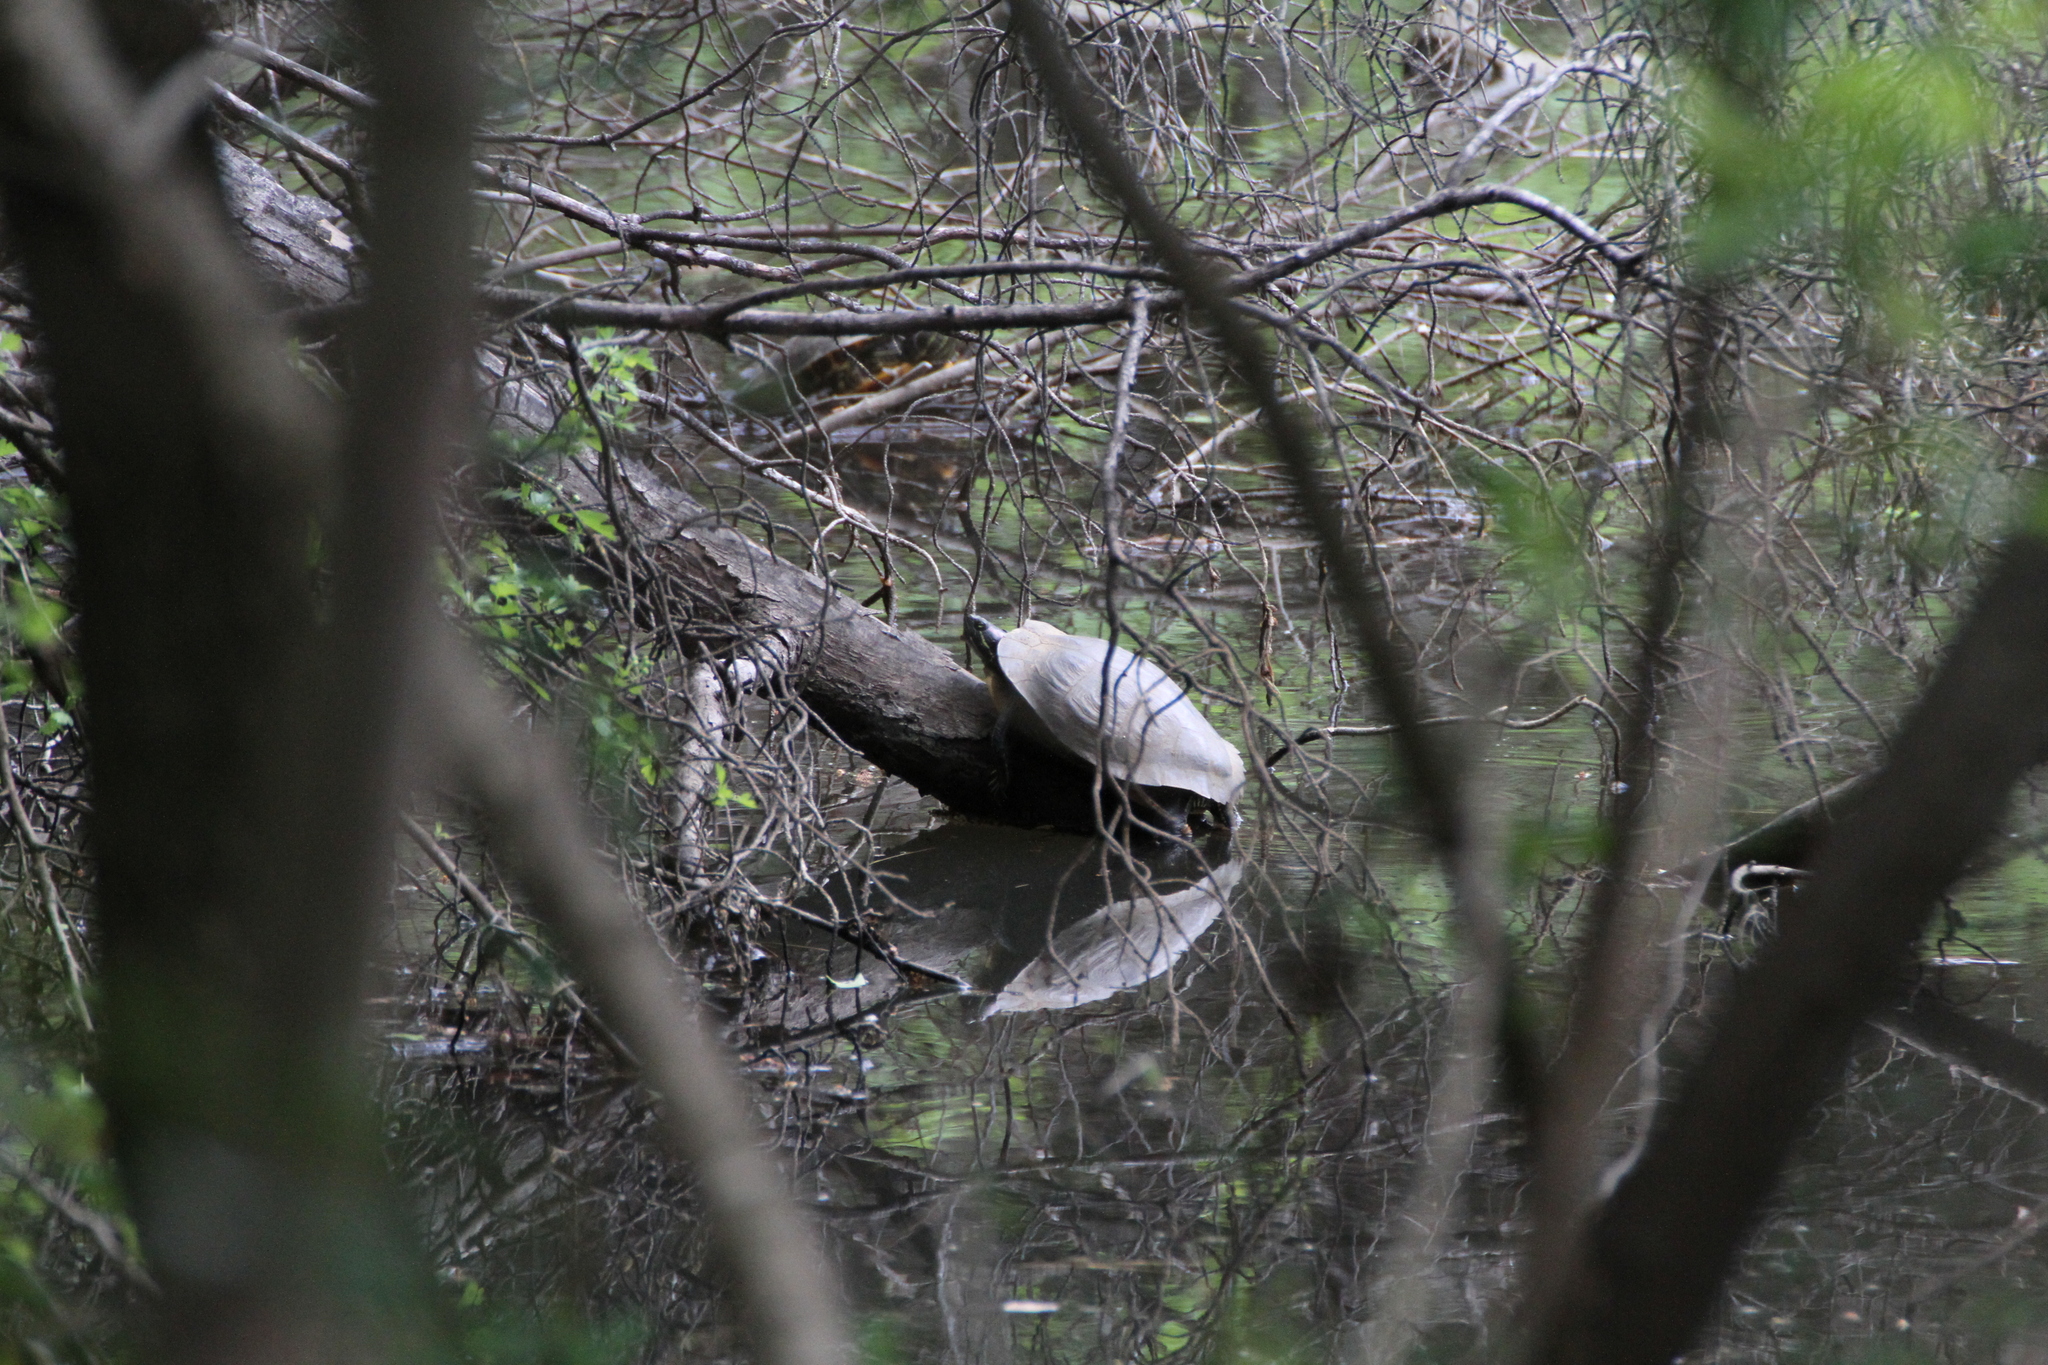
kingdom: Animalia
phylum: Chordata
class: Testudines
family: Emydidae
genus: Trachemys
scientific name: Trachemys scripta
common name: Slider
